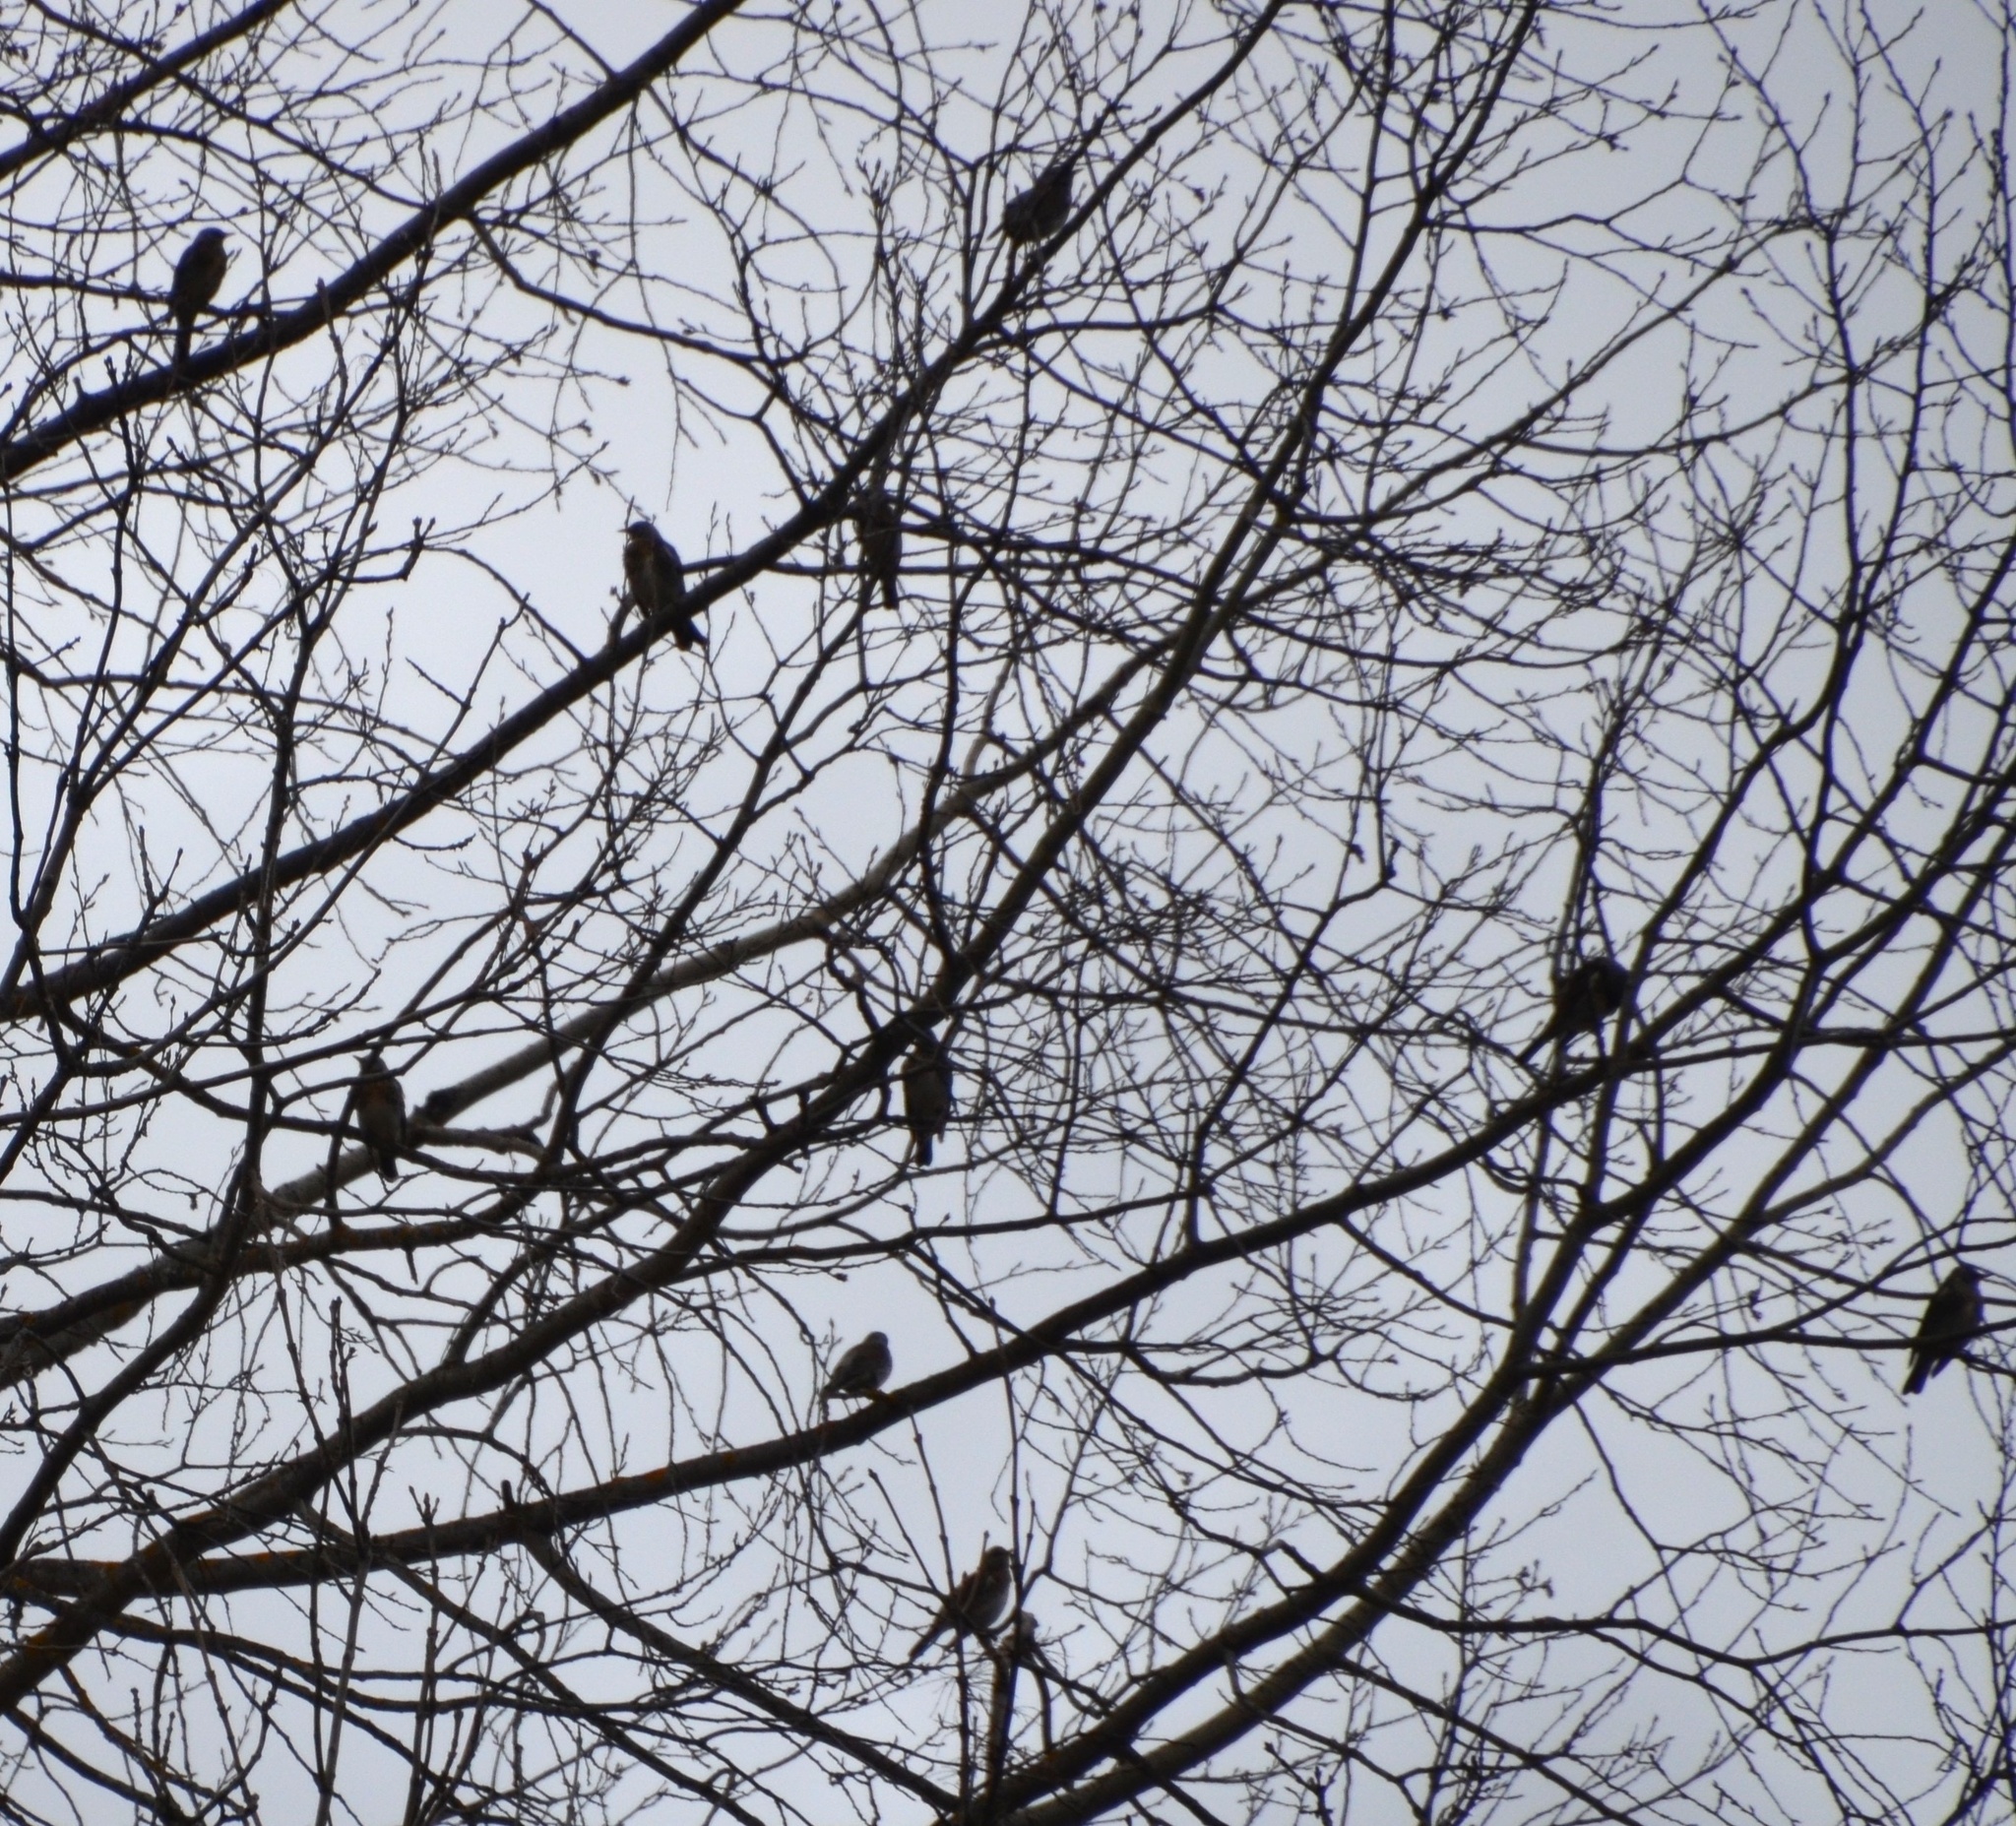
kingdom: Animalia
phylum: Chordata
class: Aves
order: Passeriformes
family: Turdidae
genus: Turdus
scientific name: Turdus pilaris
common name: Fieldfare
